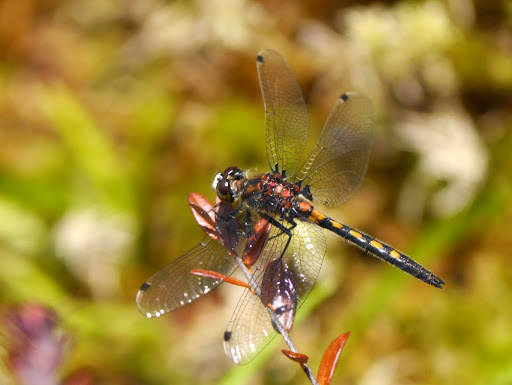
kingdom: Animalia
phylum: Arthropoda
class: Insecta
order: Odonata
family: Libellulidae
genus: Leucorrhinia
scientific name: Leucorrhinia hudsonica
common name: Hudsonian whiteface
